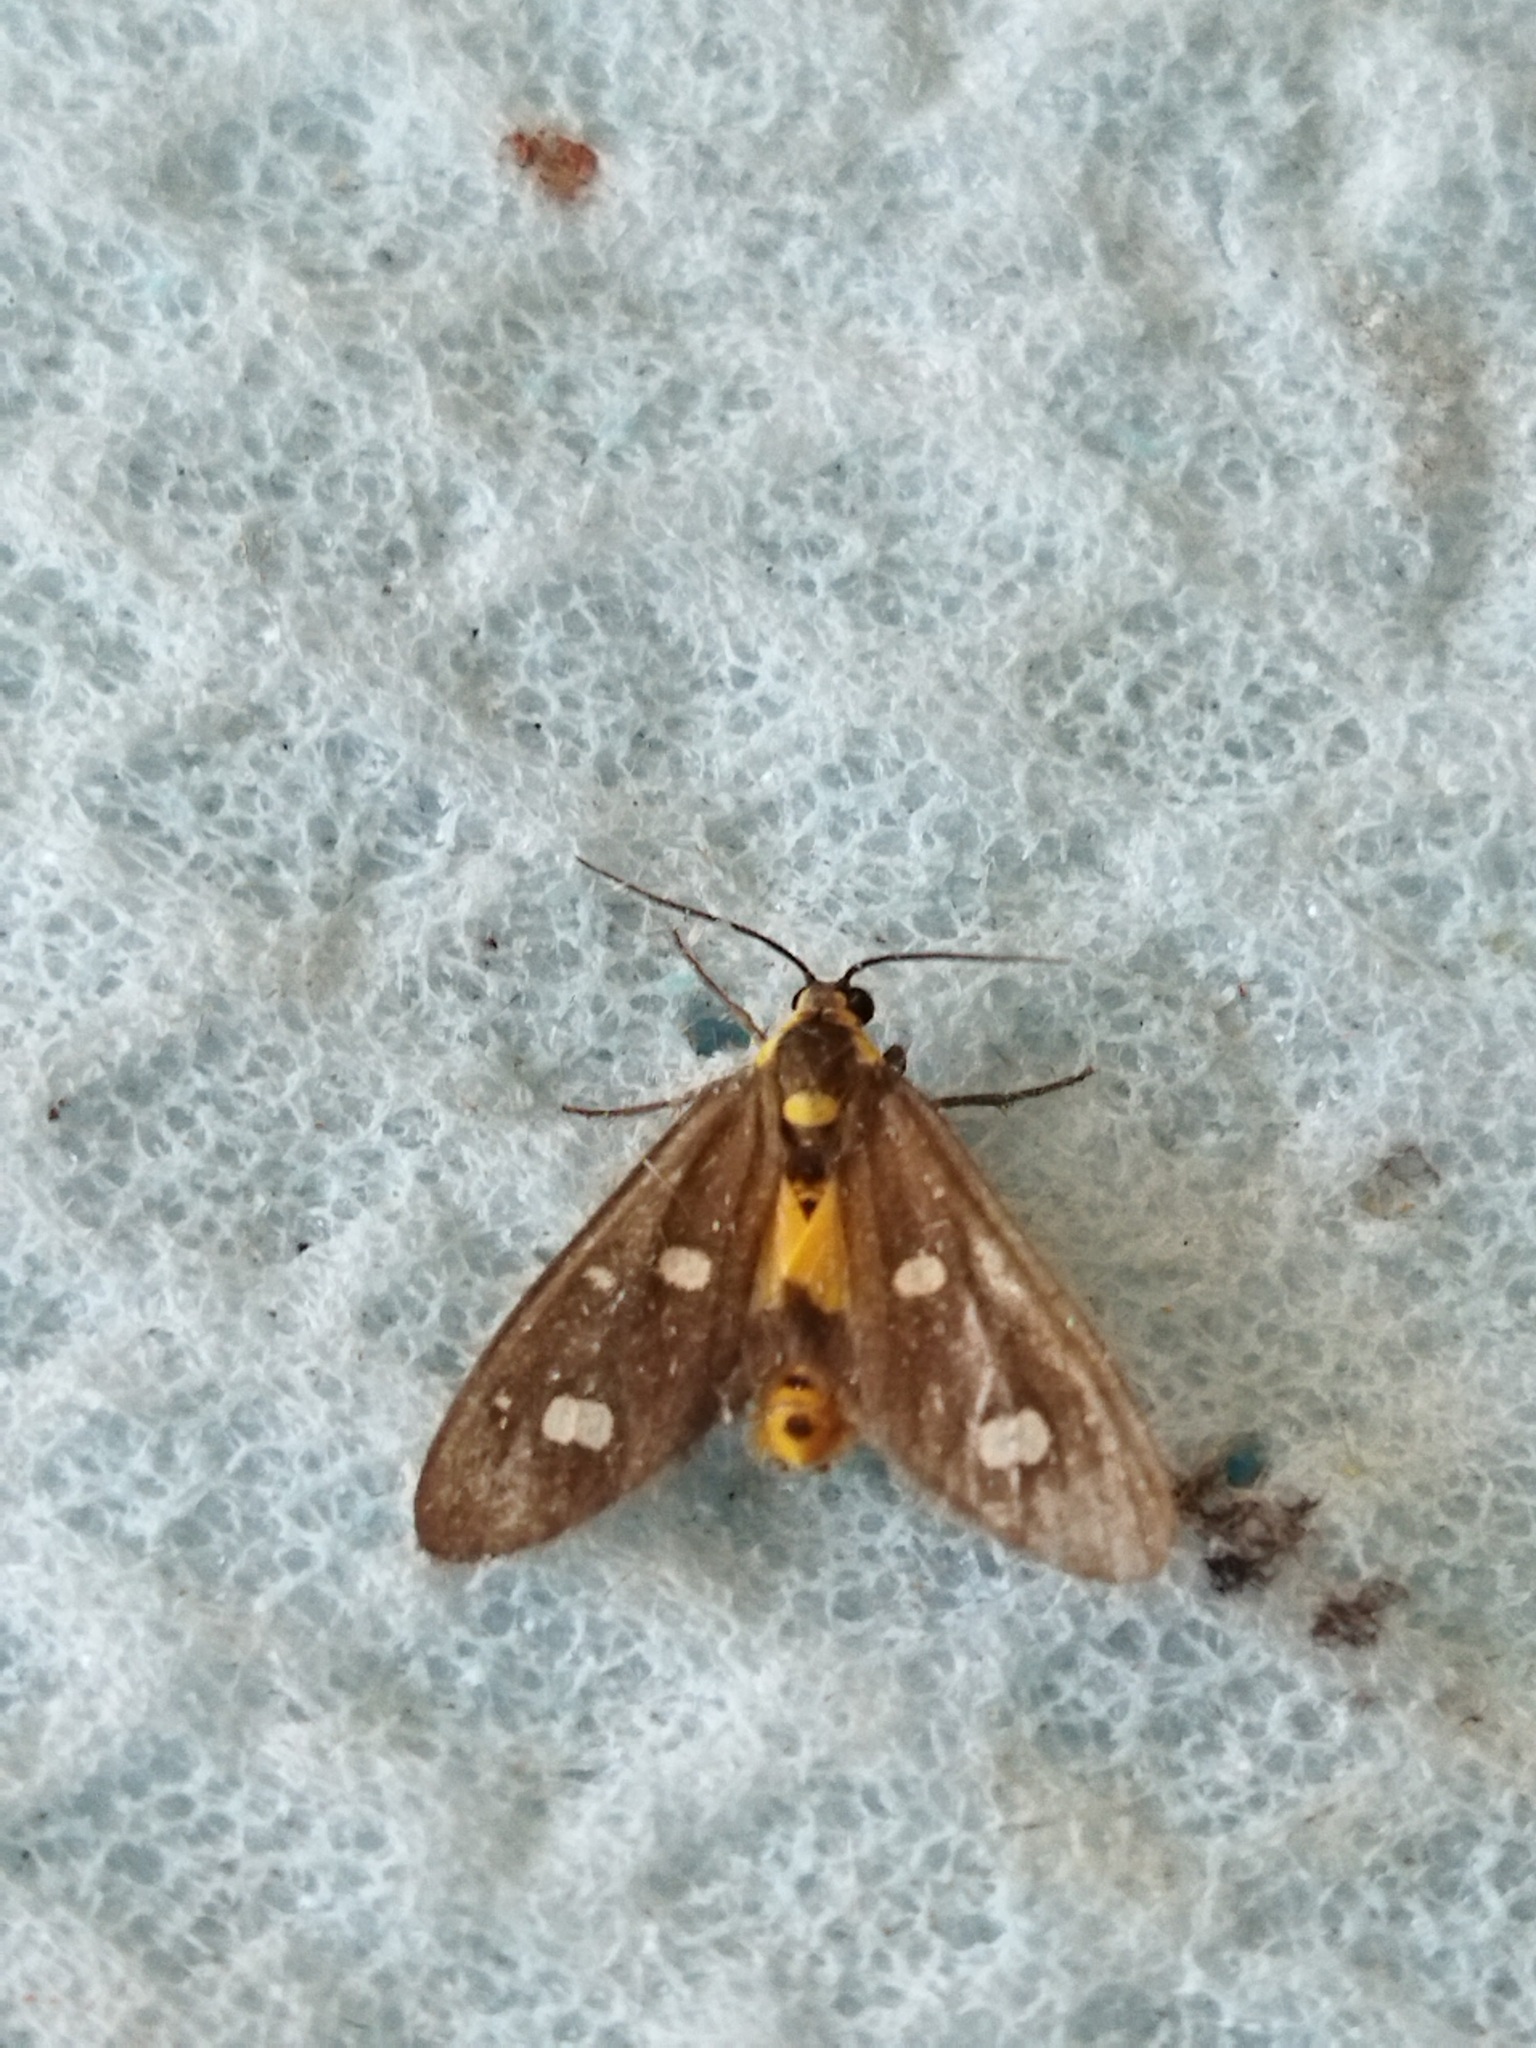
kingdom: Animalia
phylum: Arthropoda
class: Insecta
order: Lepidoptera
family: Erebidae
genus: Dysauxes
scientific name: Dysauxes punctata
